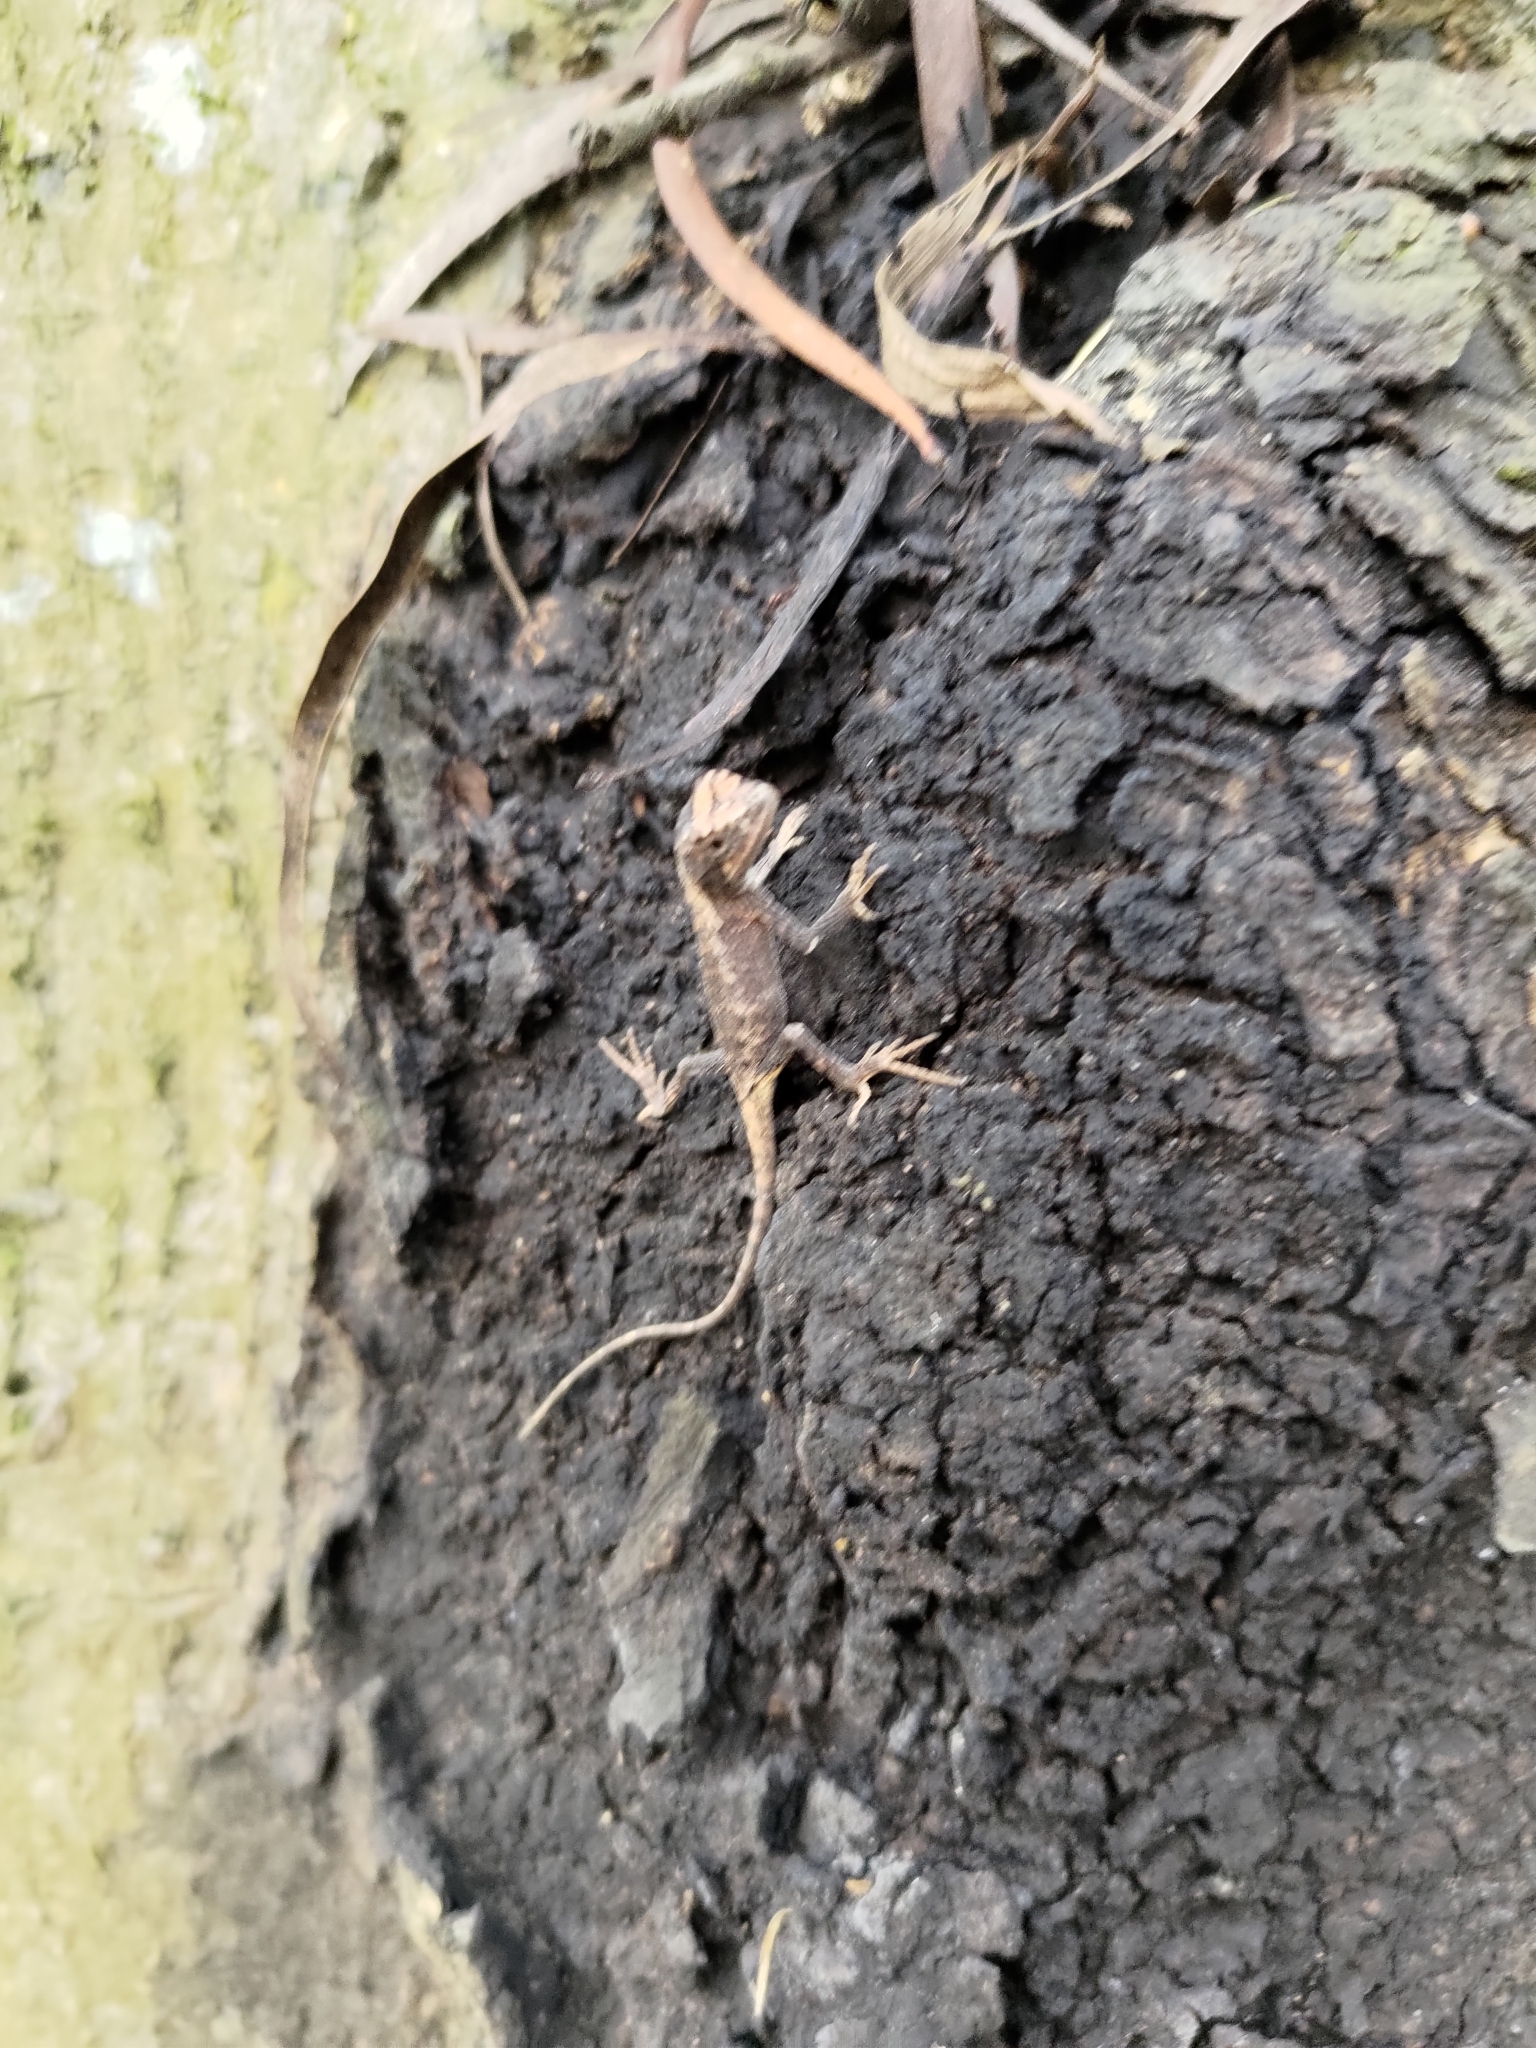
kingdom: Animalia
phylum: Chordata
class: Squamata
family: Agamidae
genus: Diploderma
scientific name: Diploderma swinhonis
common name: Taiwan japalure
